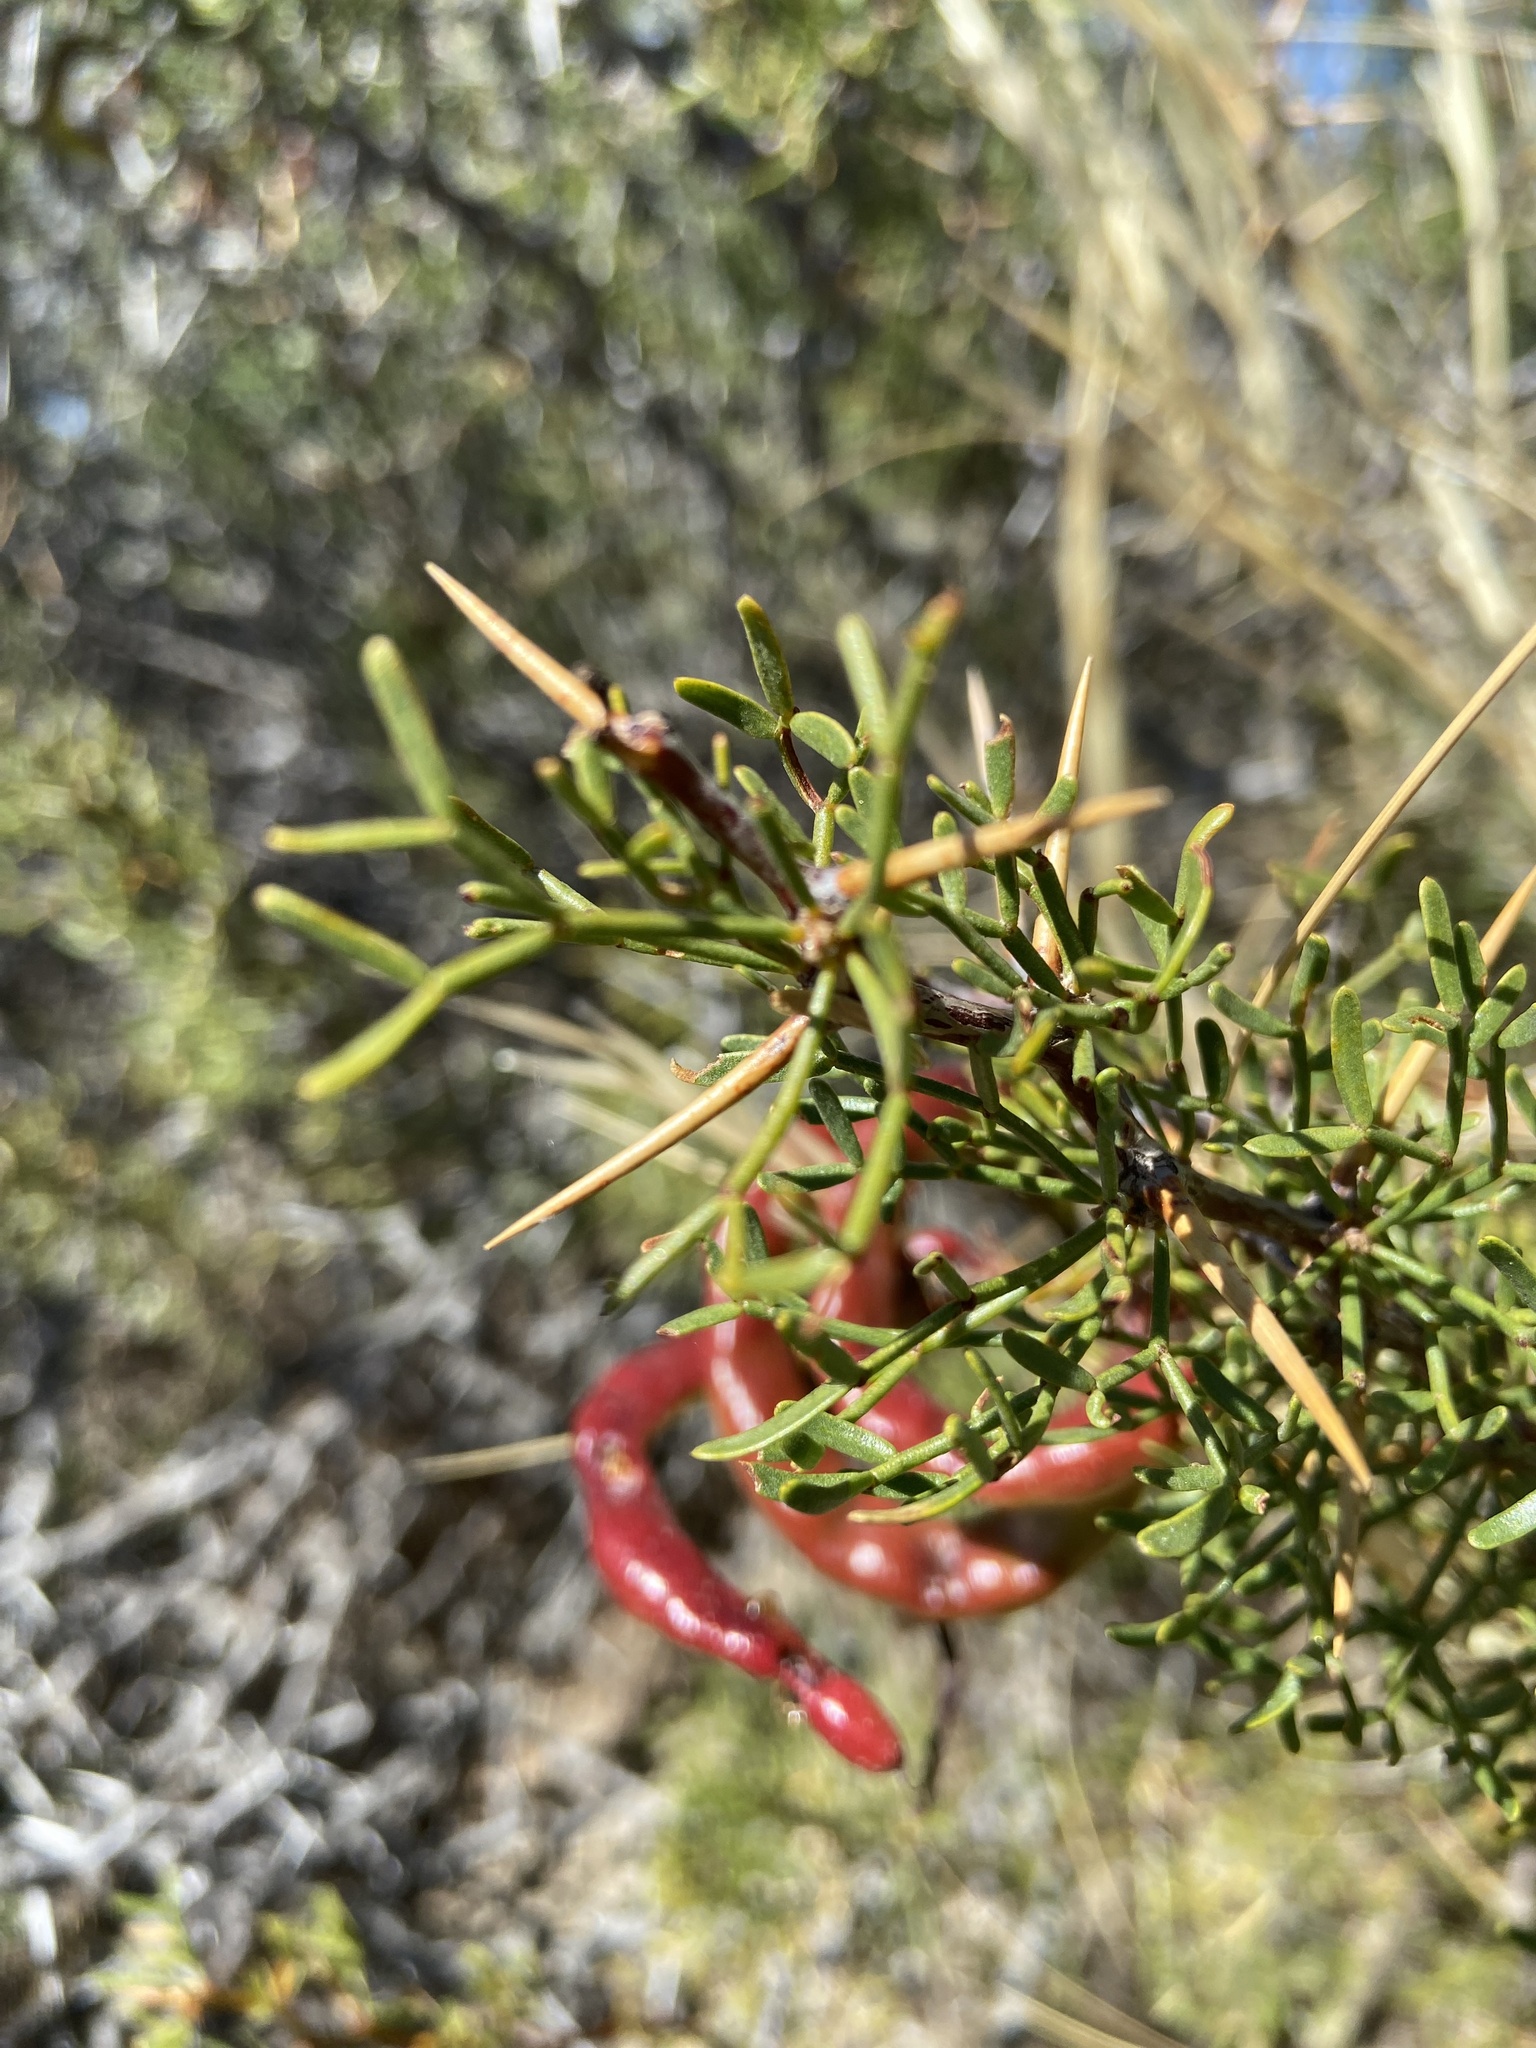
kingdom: Plantae
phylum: Tracheophyta
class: Magnoliopsida
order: Fabales
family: Fabaceae
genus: Prosopis
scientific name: Prosopis denudans
